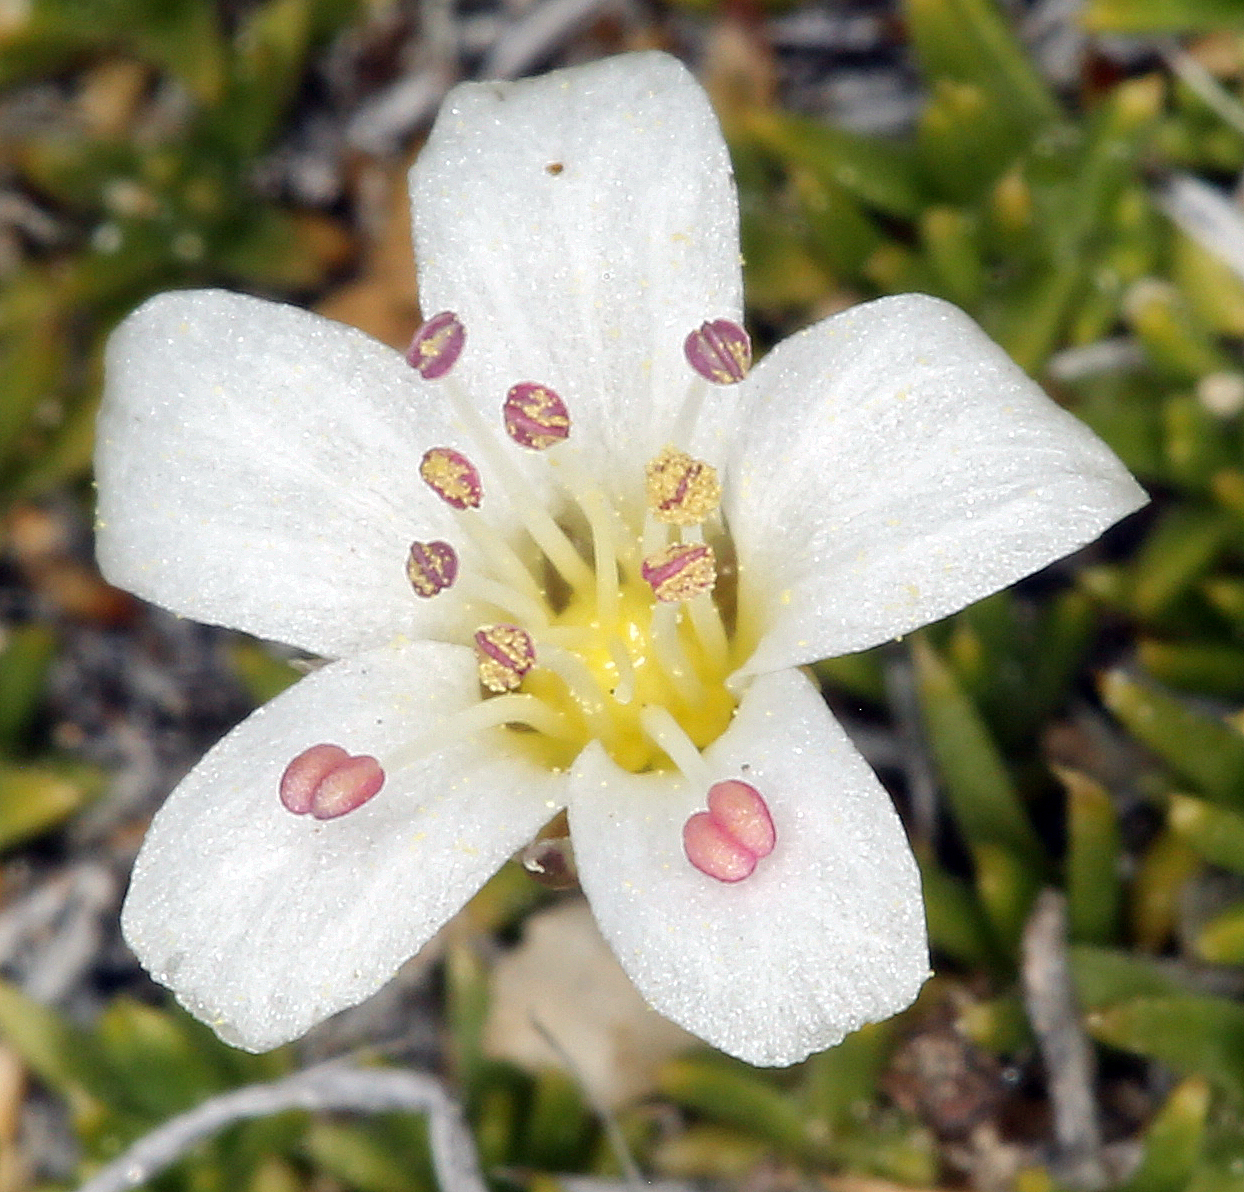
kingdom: Plantae
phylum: Tracheophyta
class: Magnoliopsida
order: Caryophyllales
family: Caryophyllaceae
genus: Eremogone
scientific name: Eremogone kingii
